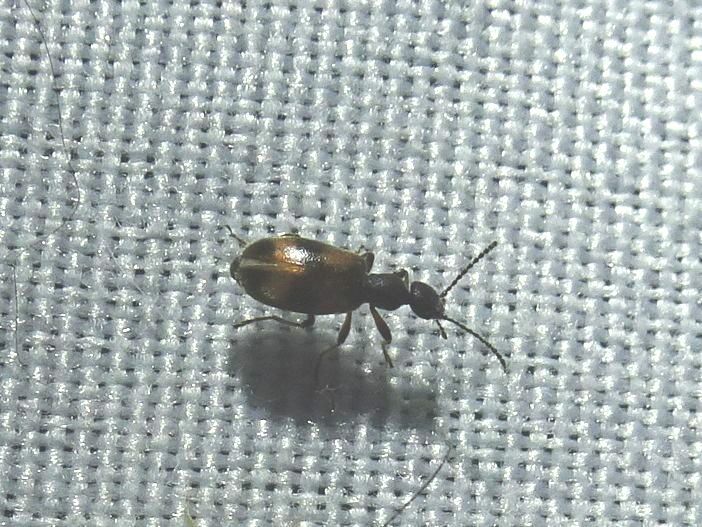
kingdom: Animalia
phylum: Arthropoda
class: Insecta
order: Coleoptera
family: Anthicidae
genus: Anthicus
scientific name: Anthicus antherinus
